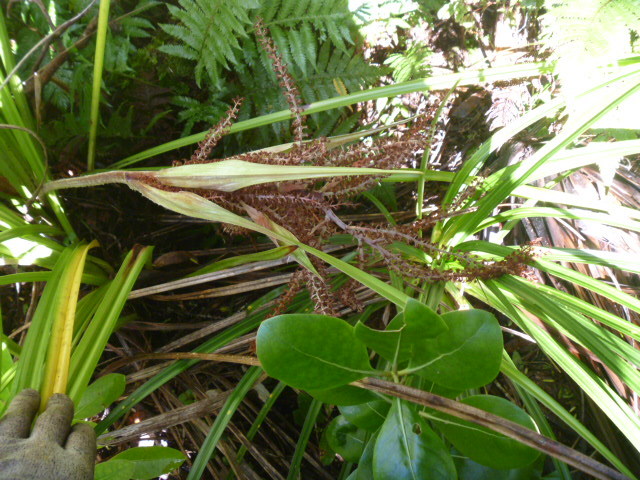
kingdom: Plantae
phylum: Tracheophyta
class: Liliopsida
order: Asparagales
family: Asteliaceae
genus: Astelia
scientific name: Astelia trinervia
